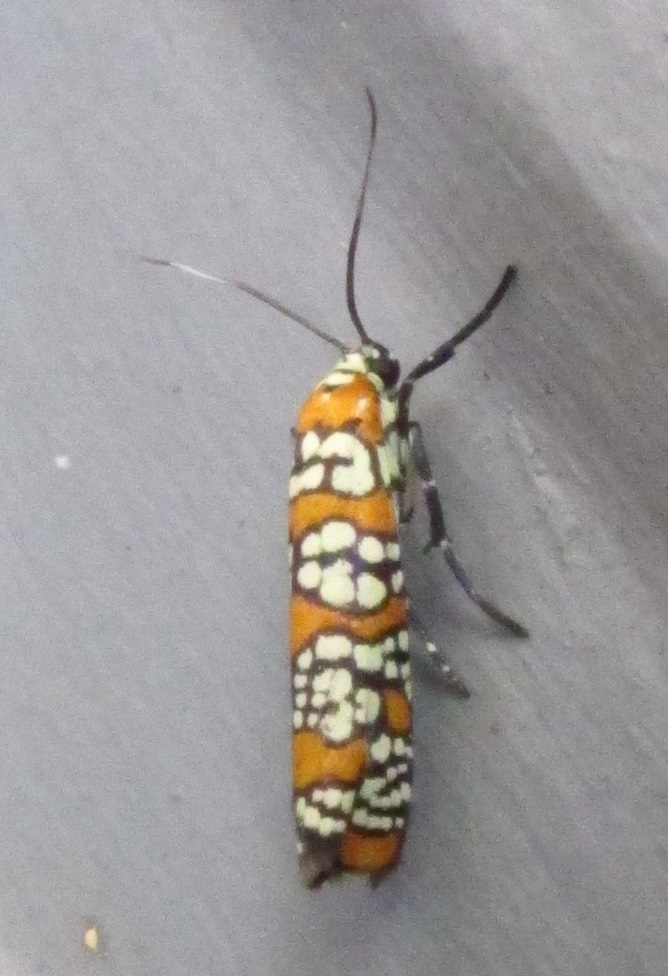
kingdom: Animalia
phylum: Arthropoda
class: Insecta
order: Lepidoptera
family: Attevidae
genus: Atteva
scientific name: Atteva punctella
